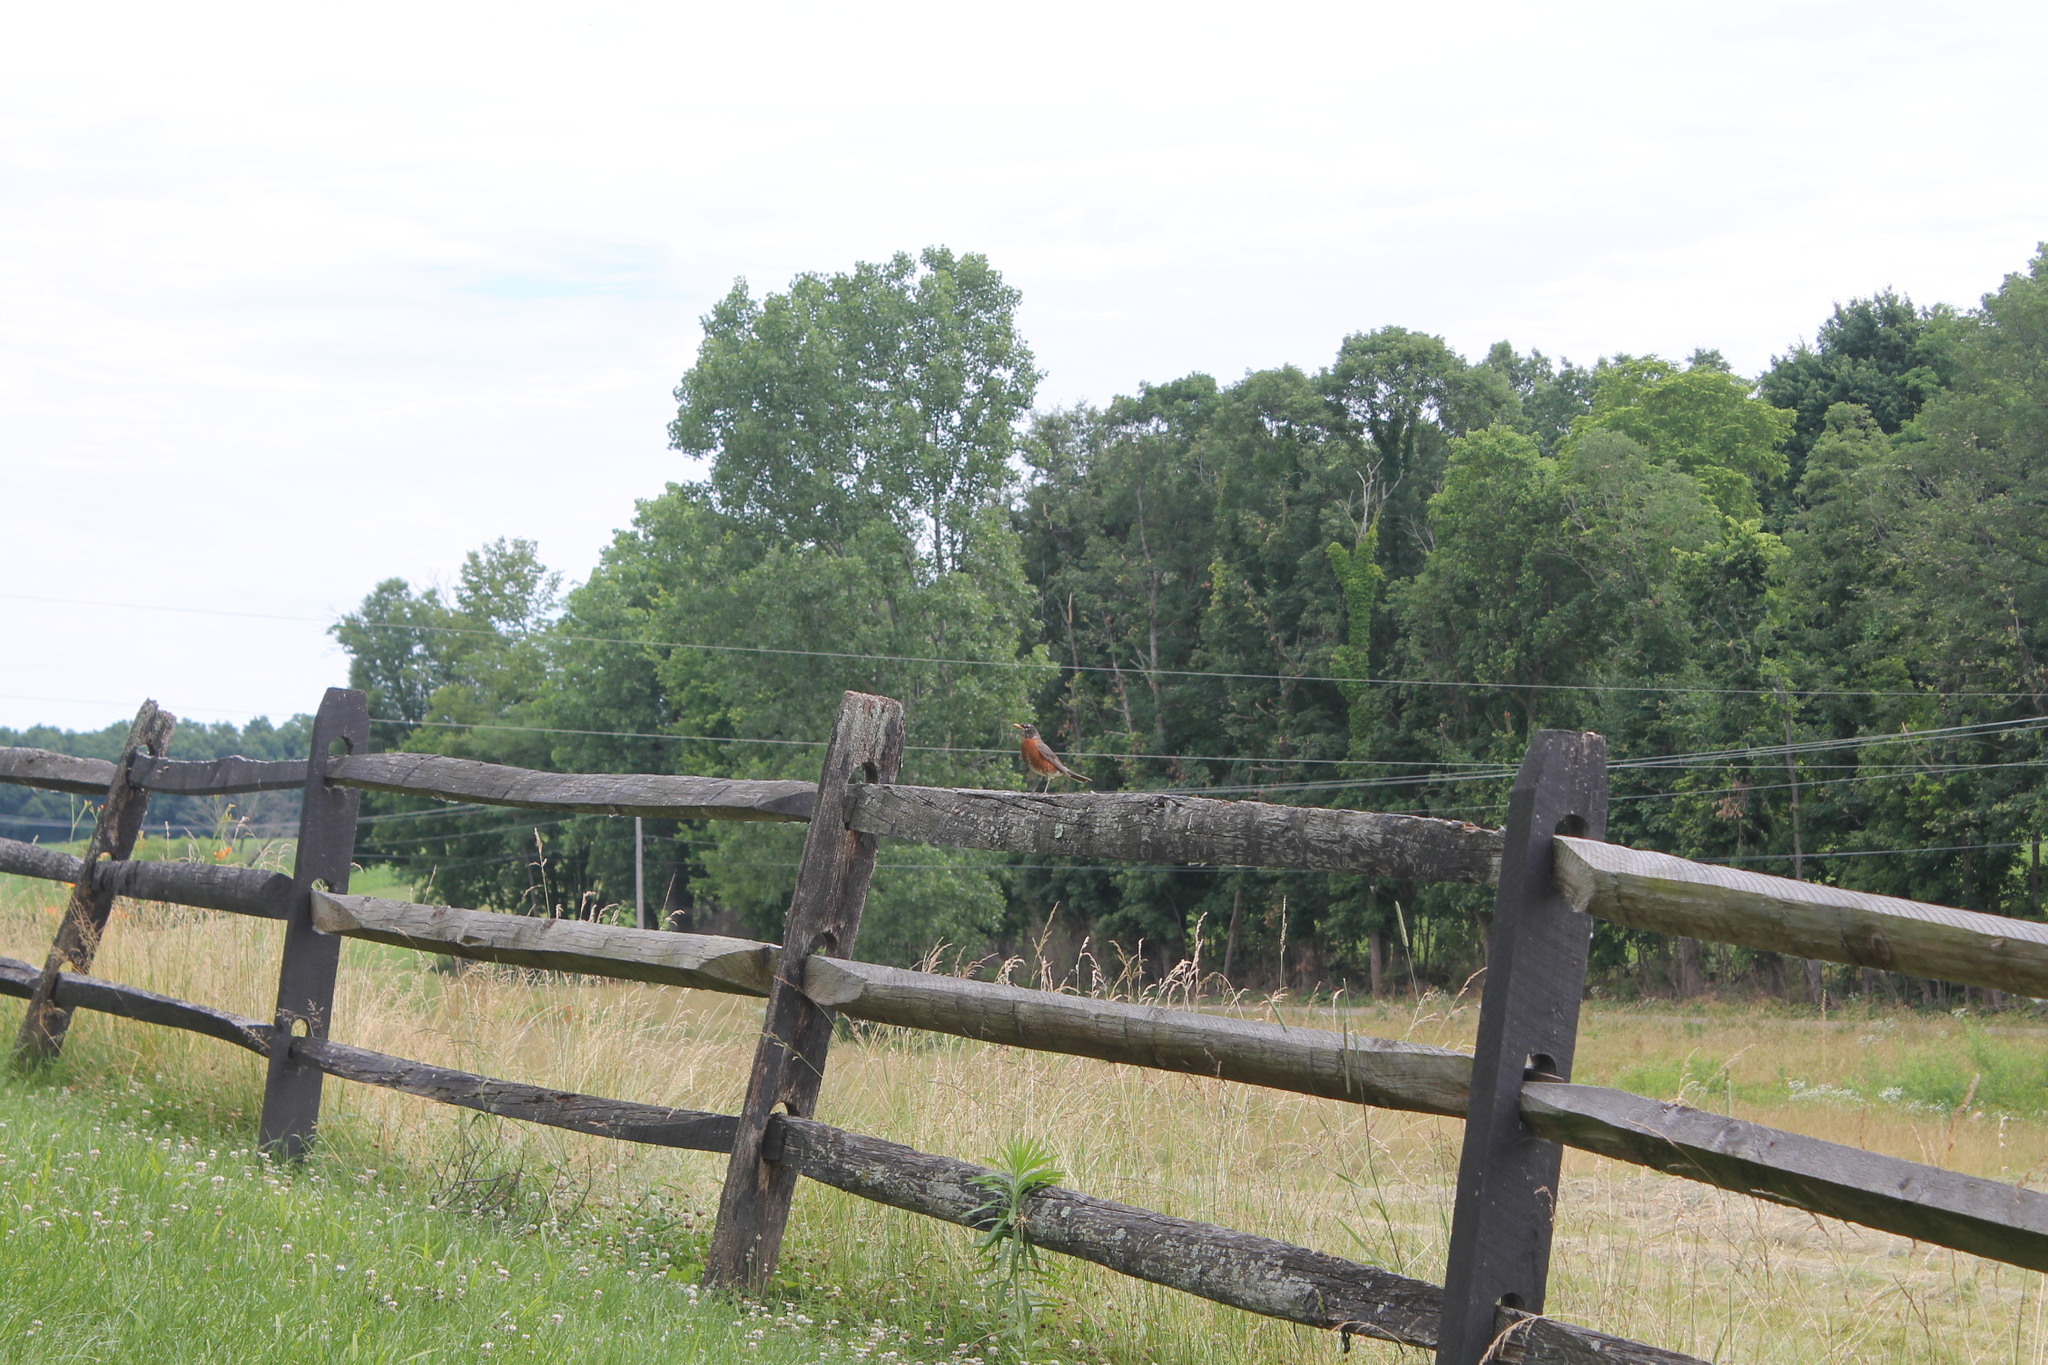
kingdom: Animalia
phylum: Chordata
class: Aves
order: Passeriformes
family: Turdidae
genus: Turdus
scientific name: Turdus migratorius
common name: American robin
